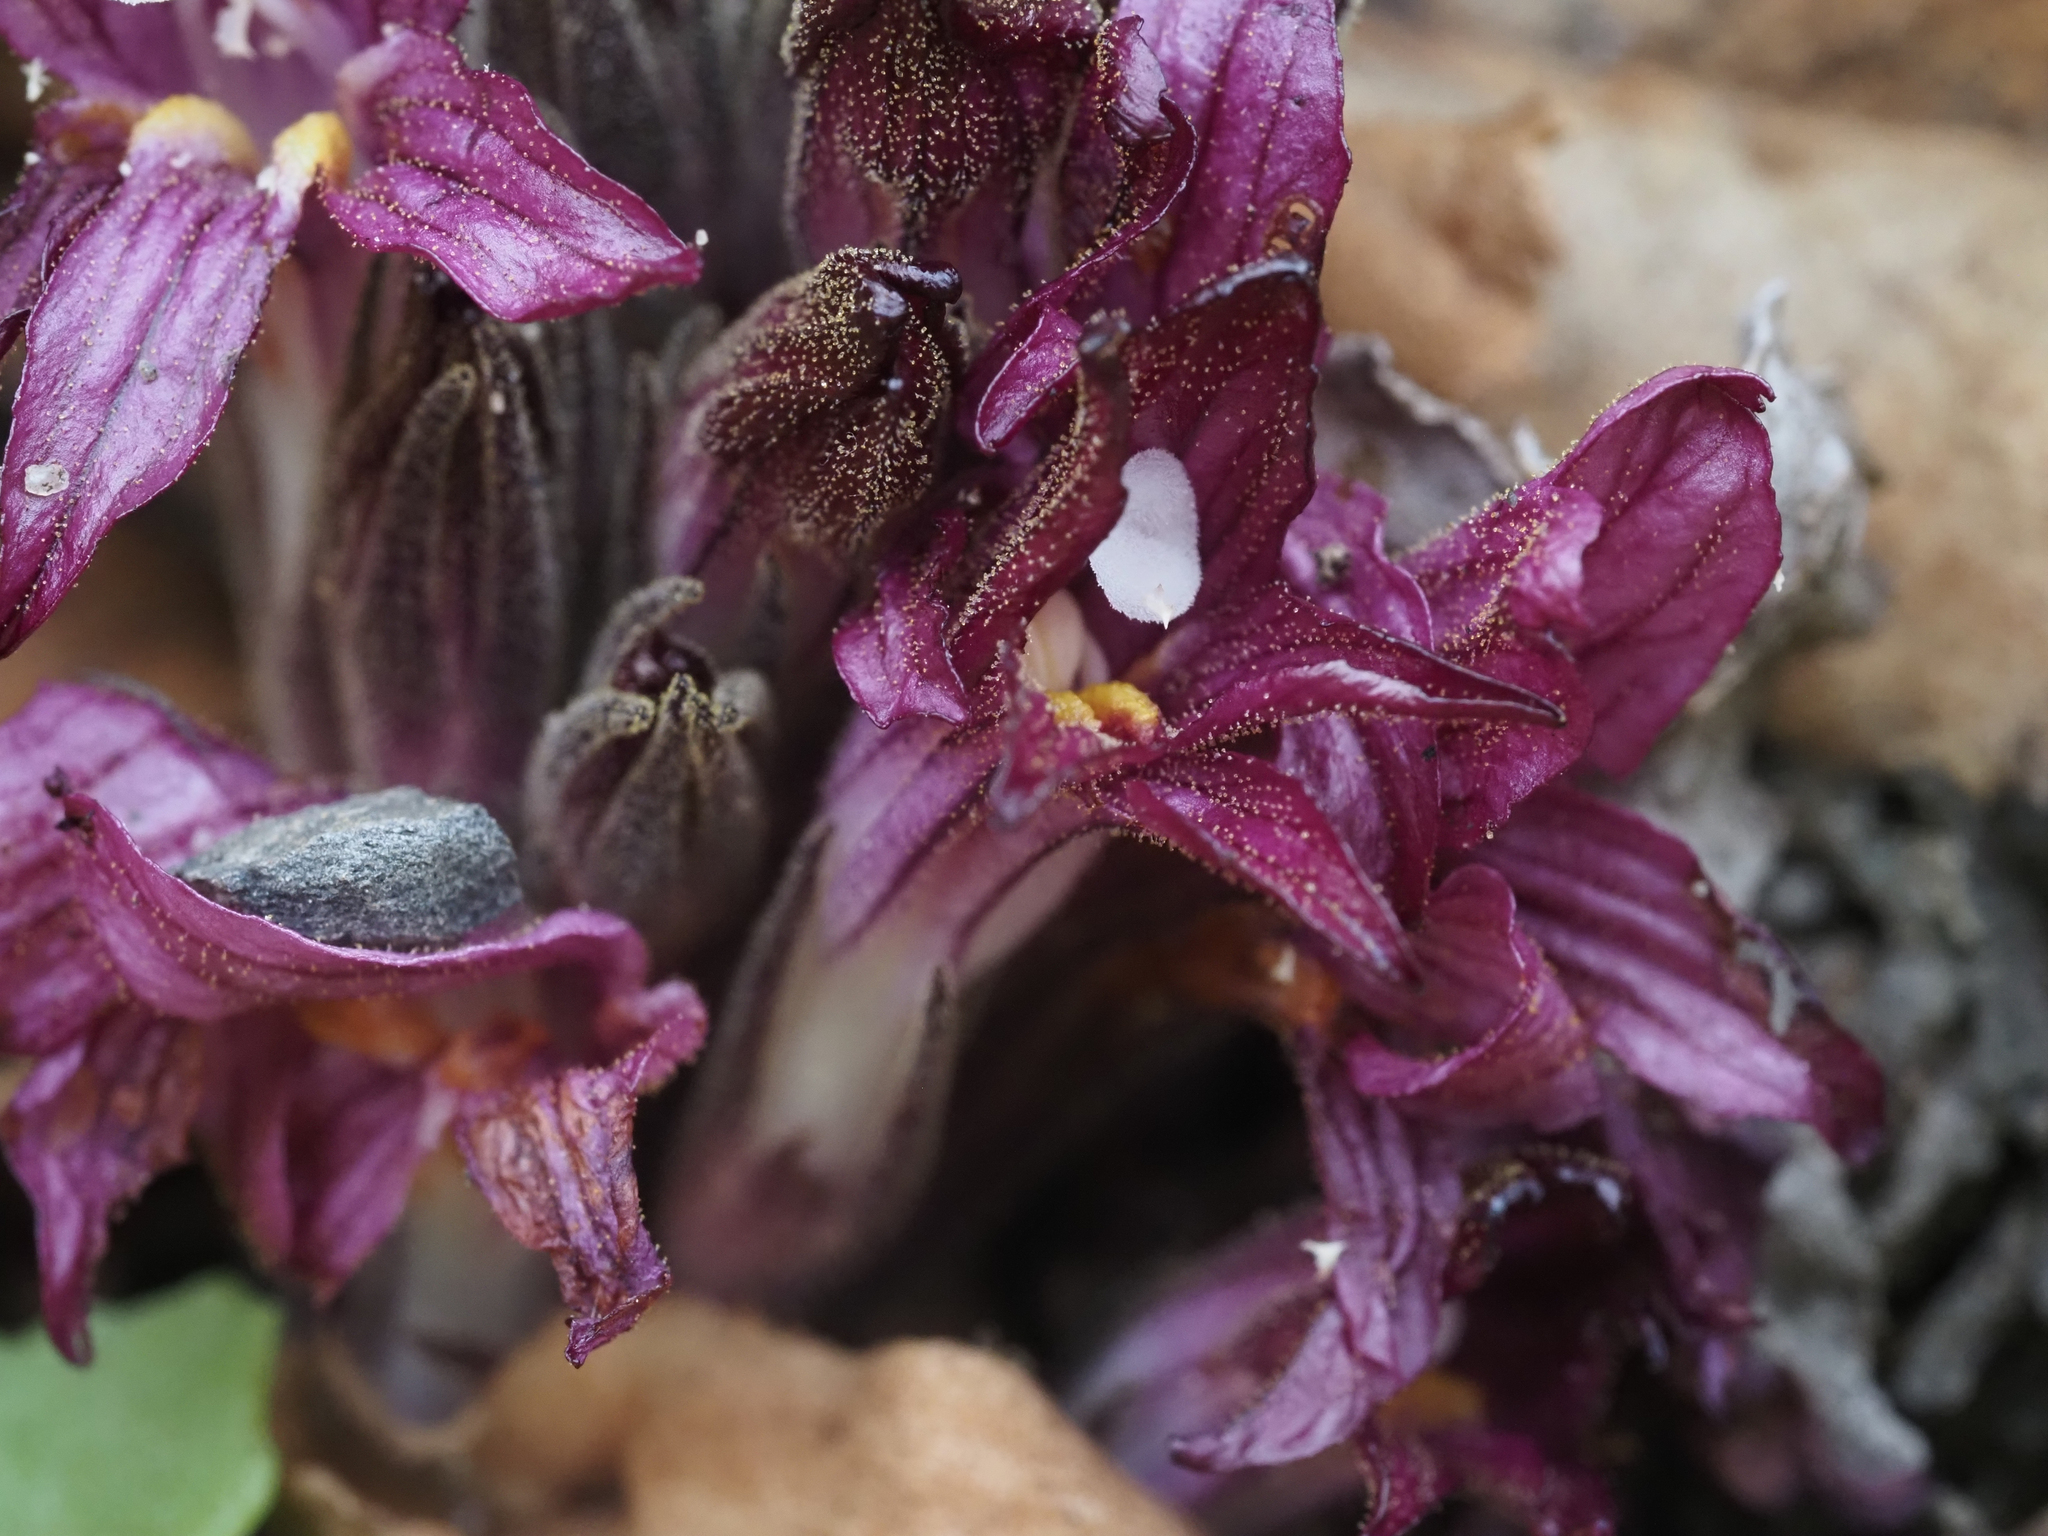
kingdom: Plantae
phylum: Tracheophyta
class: Magnoliopsida
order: Lamiales
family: Orobanchaceae
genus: Aphyllon
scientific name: Aphyllon californicum
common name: California broomrape
